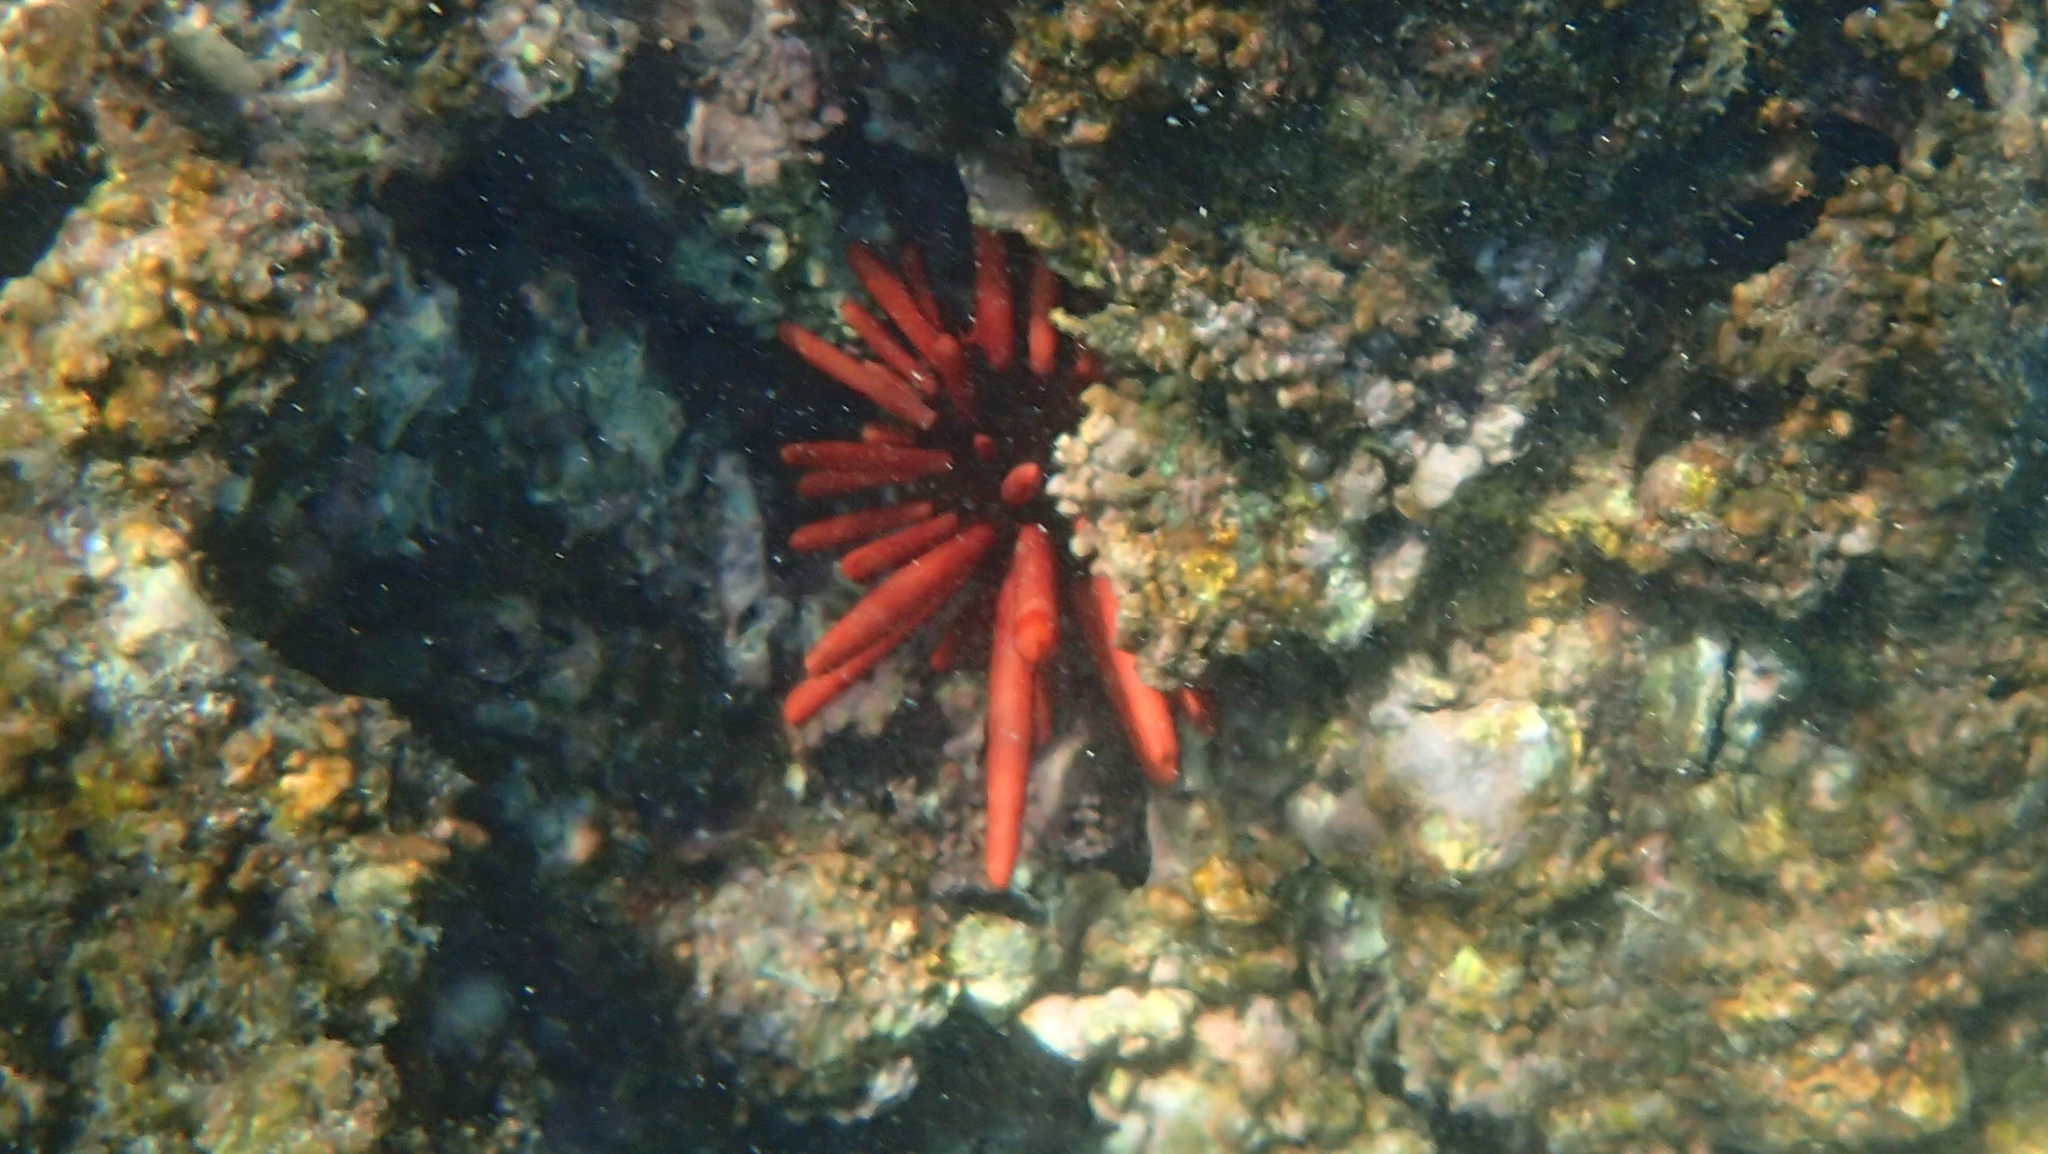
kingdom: Animalia
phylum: Echinodermata
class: Echinoidea
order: Camarodonta
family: Echinometridae
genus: Heterocentrotus
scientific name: Heterocentrotus mamillatus
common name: Slate pencil urchin
